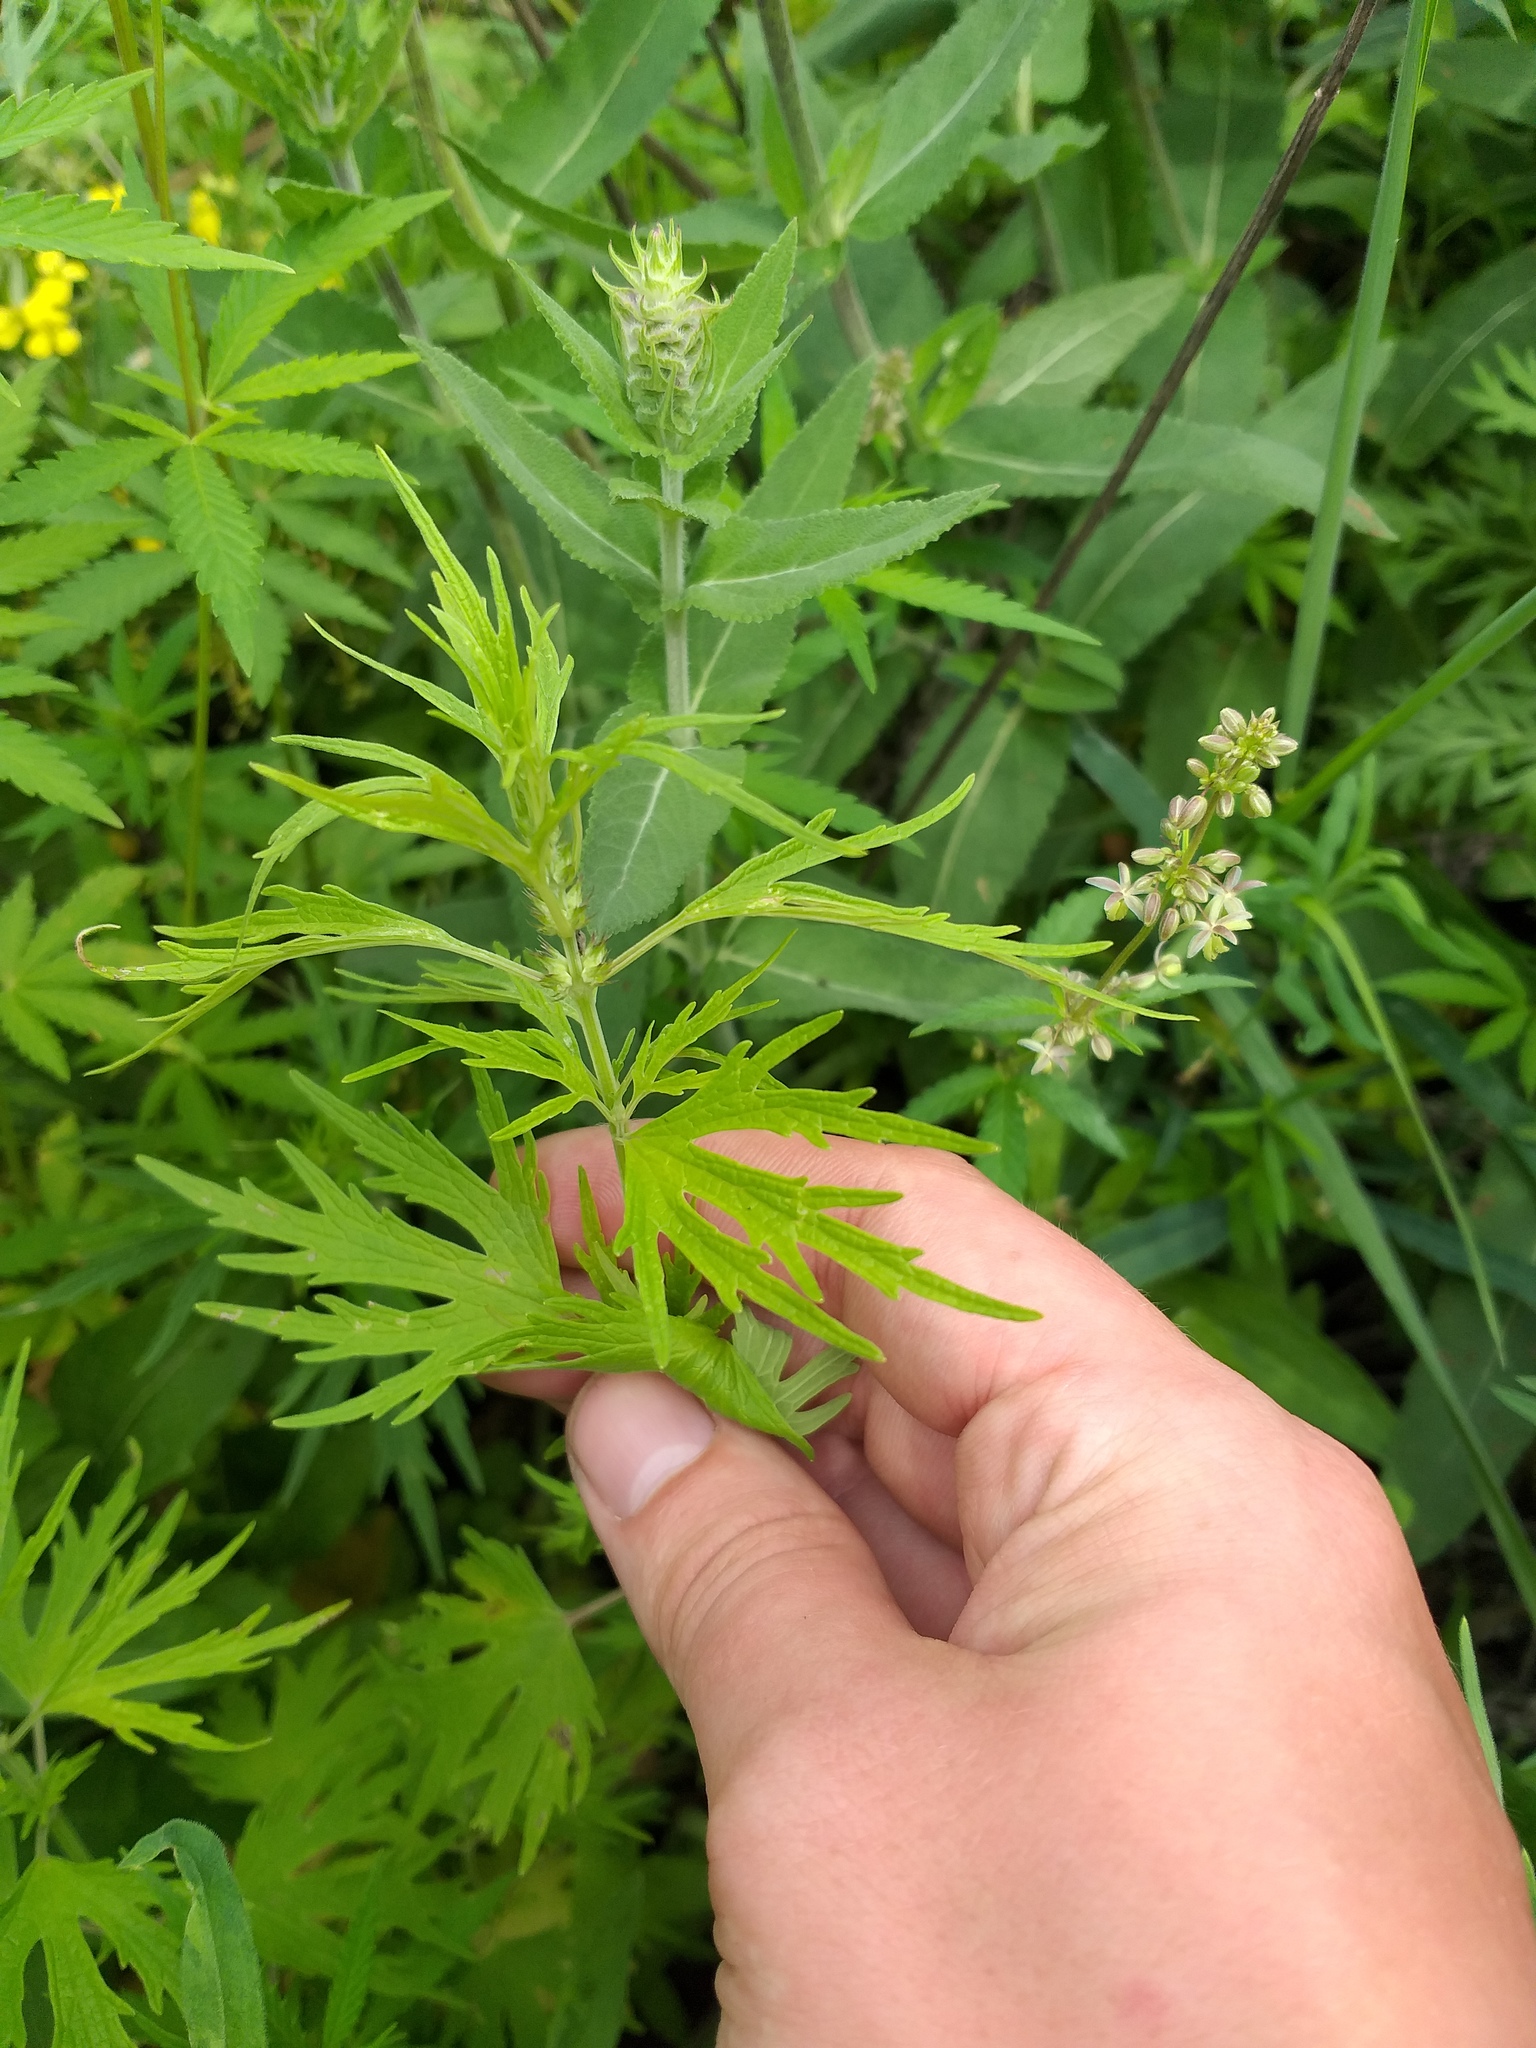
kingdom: Plantae
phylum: Tracheophyta
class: Magnoliopsida
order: Lamiales
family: Lamiaceae
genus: Leonurus
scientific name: Leonurus glaucescens
